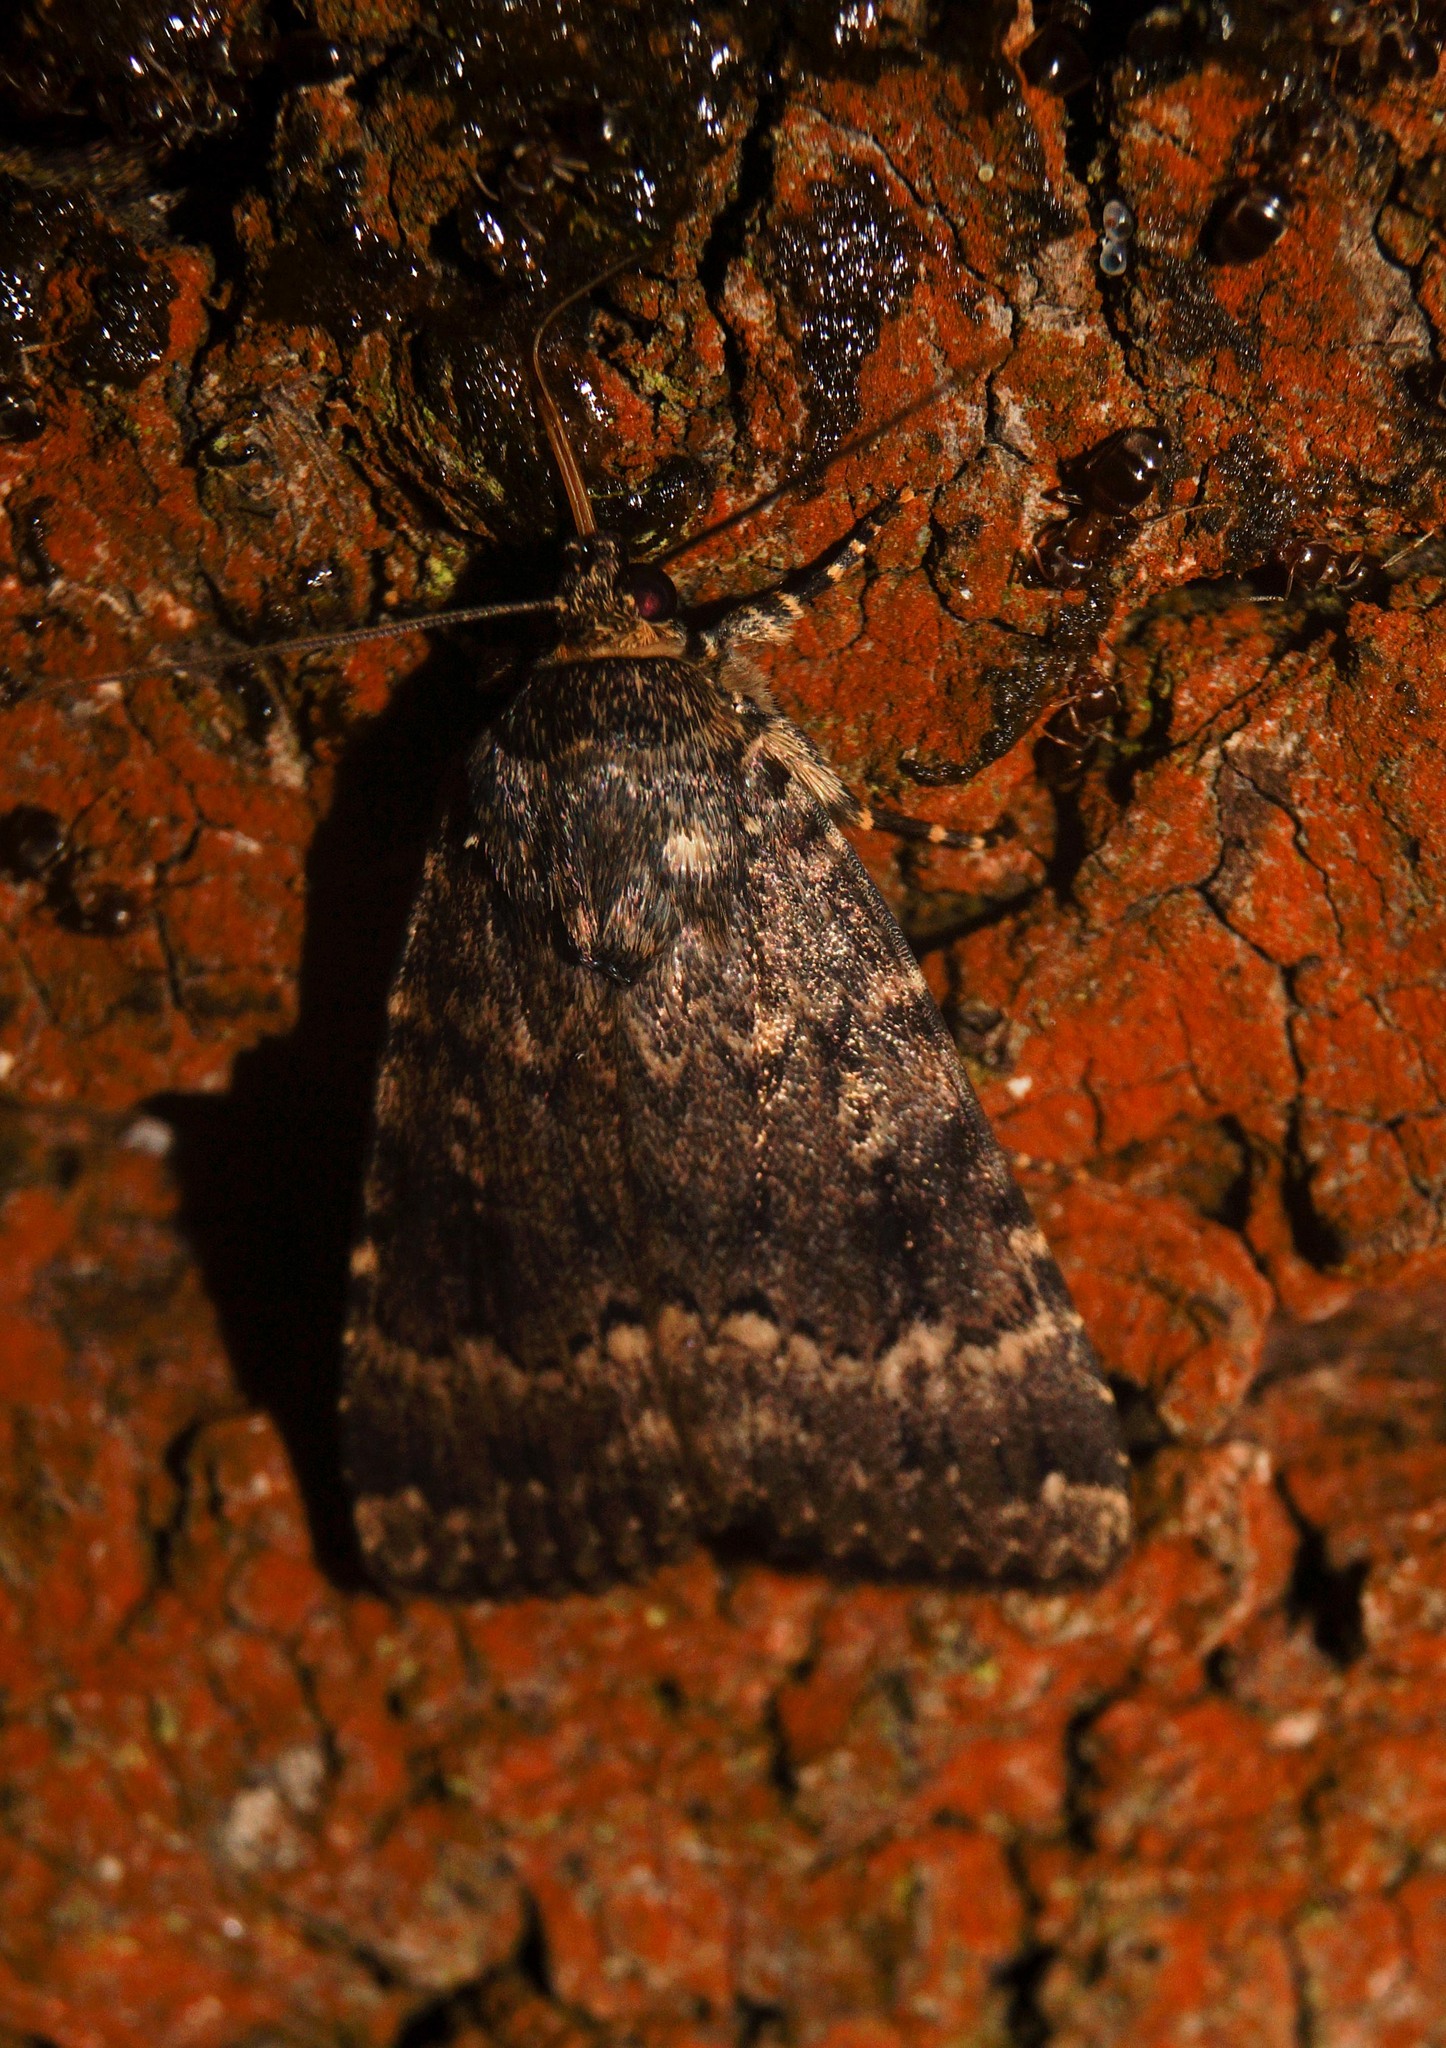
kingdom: Animalia
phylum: Arthropoda
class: Insecta
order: Lepidoptera
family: Noctuidae
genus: Amphipyra
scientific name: Amphipyra berbera
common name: Svensson's copper underwing
